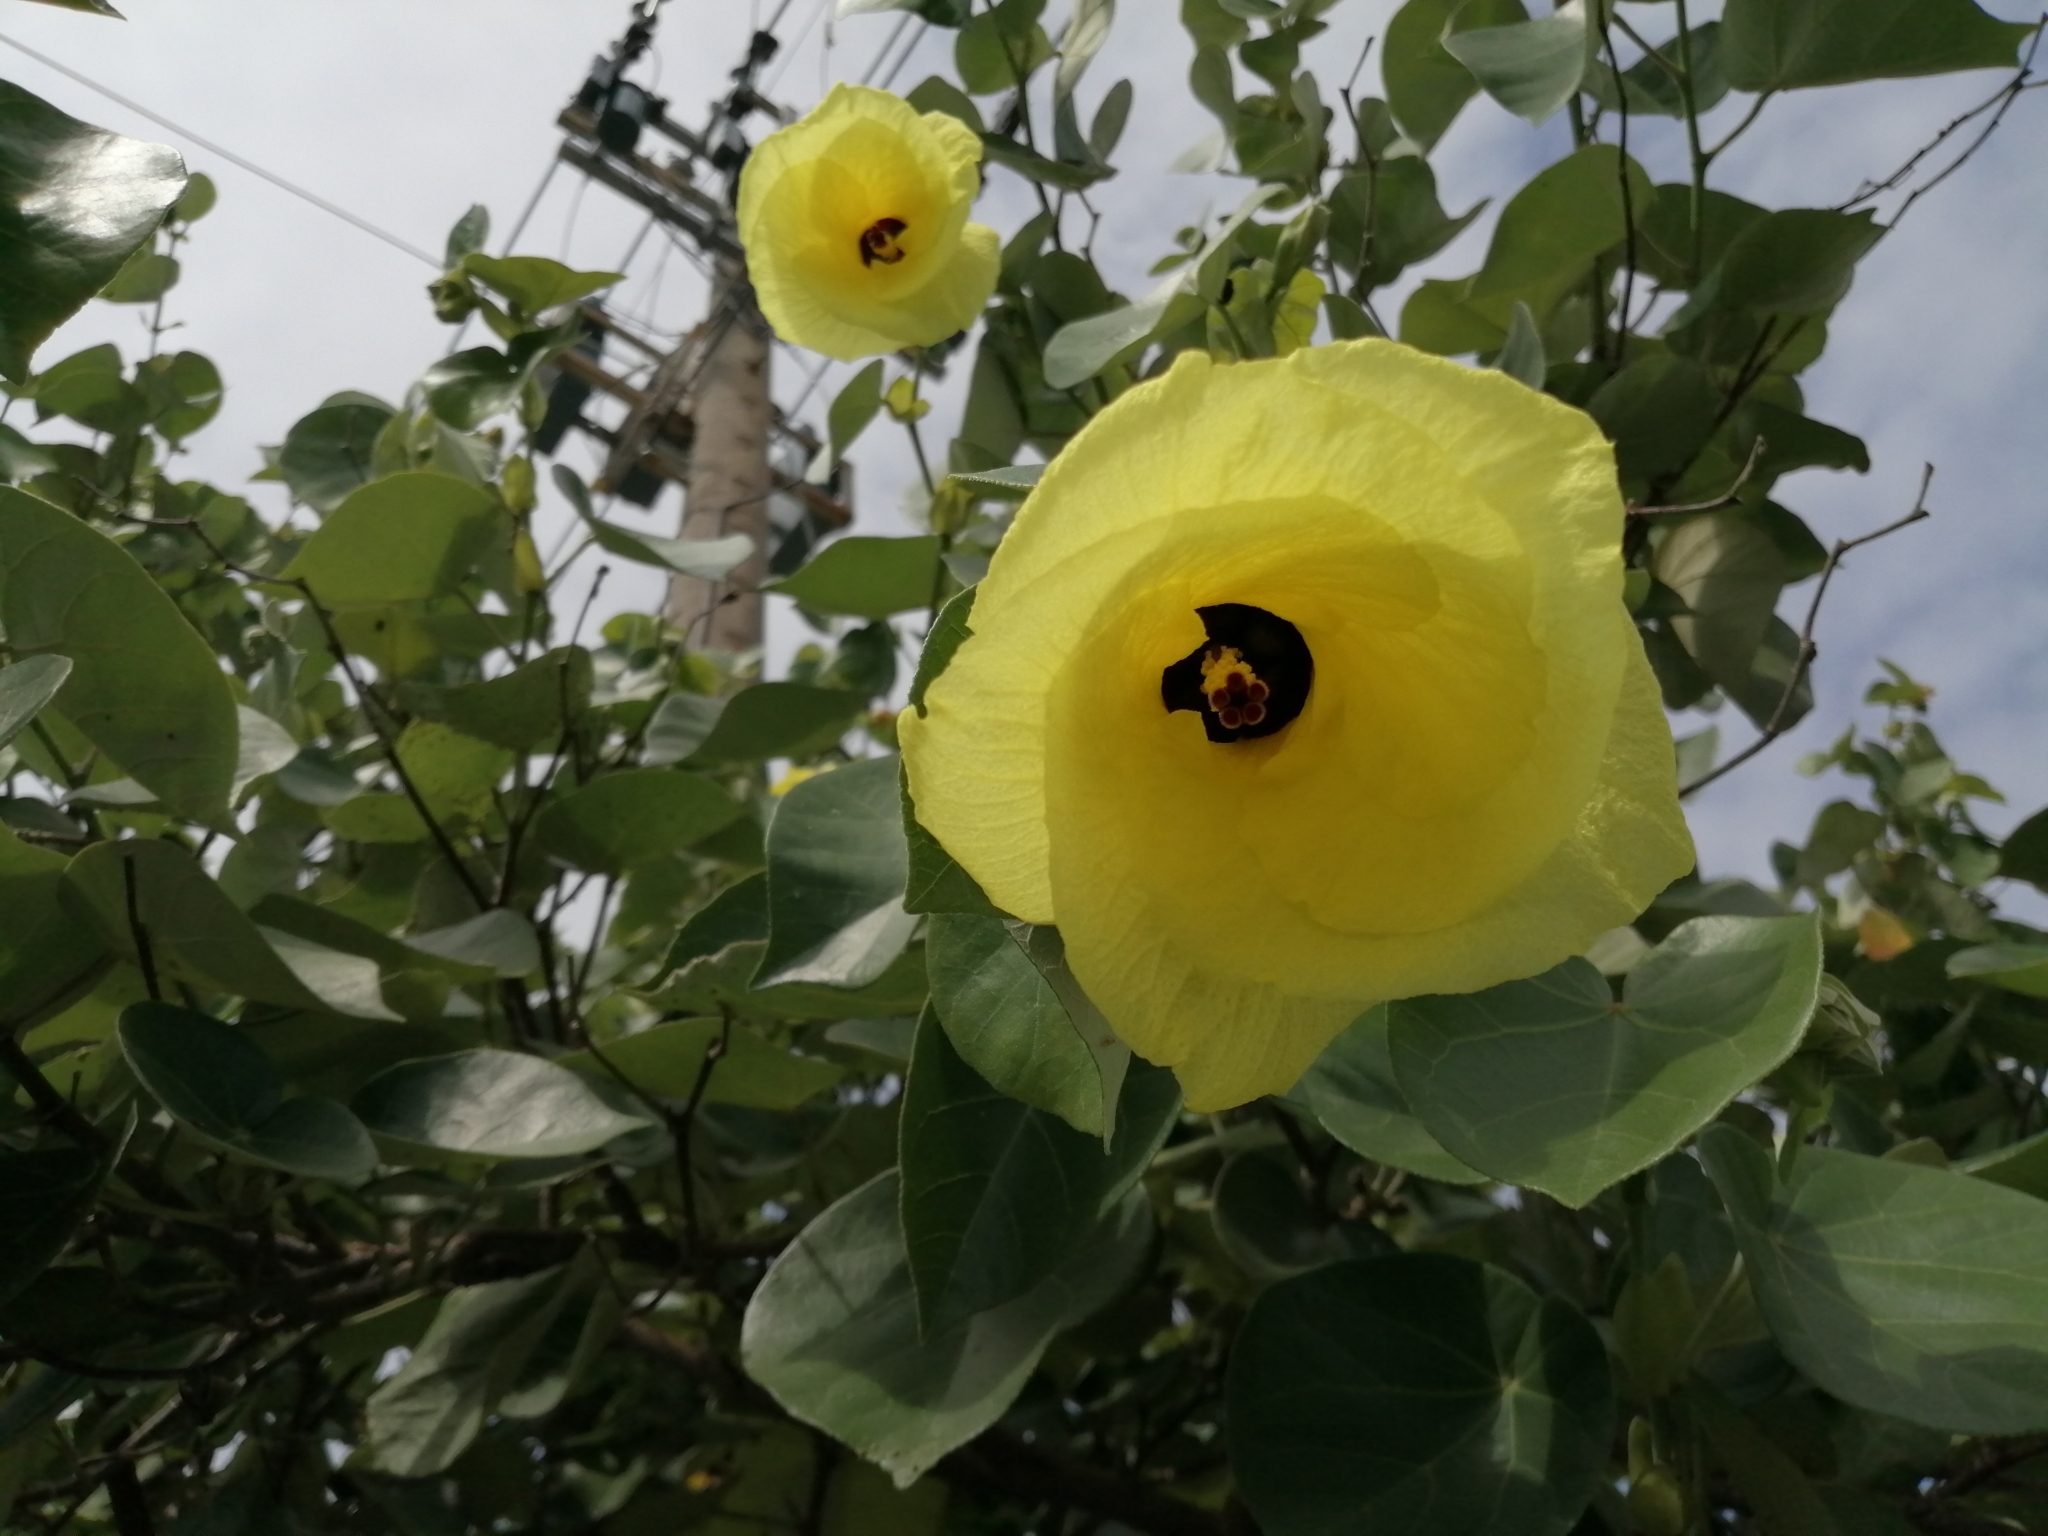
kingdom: Plantae
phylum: Tracheophyta
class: Magnoliopsida
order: Malvales
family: Malvaceae
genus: Talipariti
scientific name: Talipariti tiliaceum
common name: Sea hibiscus
